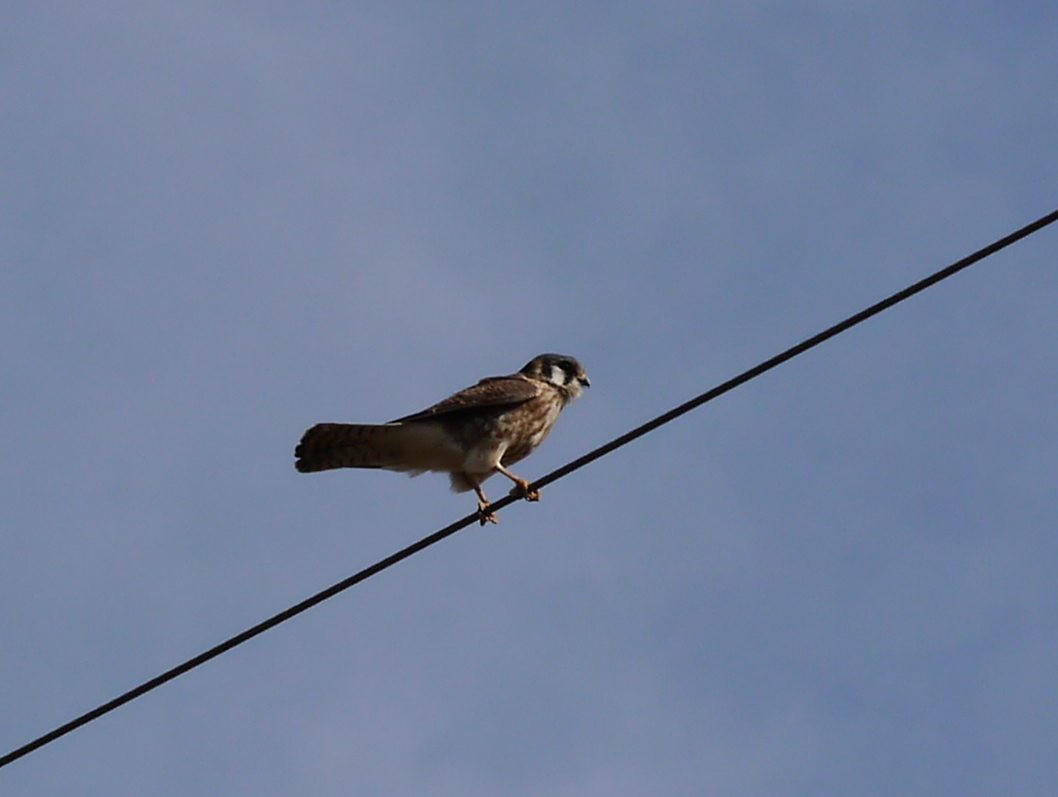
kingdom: Animalia
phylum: Chordata
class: Aves
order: Falconiformes
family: Falconidae
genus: Falco
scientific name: Falco sparverius
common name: American kestrel
